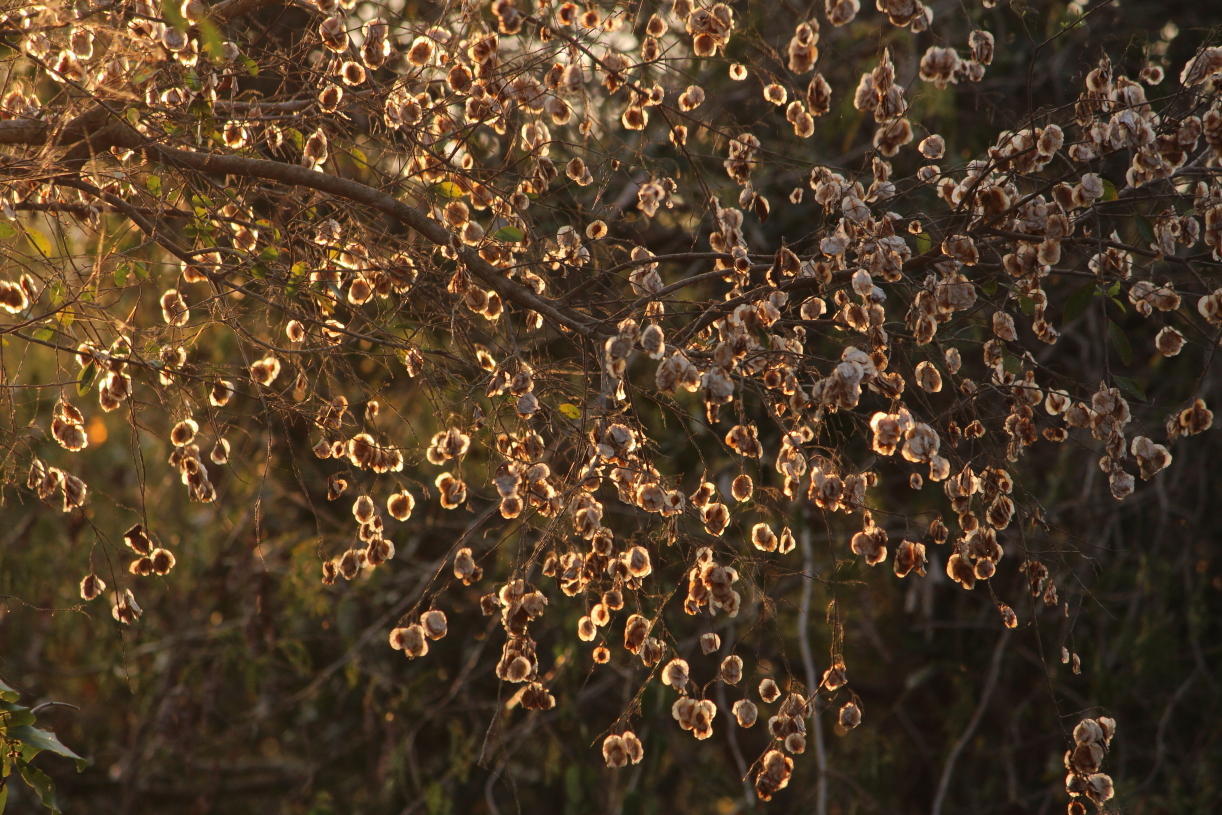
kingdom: Plantae
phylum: Tracheophyta
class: Magnoliopsida
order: Malpighiales
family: Phyllanthaceae
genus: Hymenocardia
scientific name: Hymenocardia ulmoides
